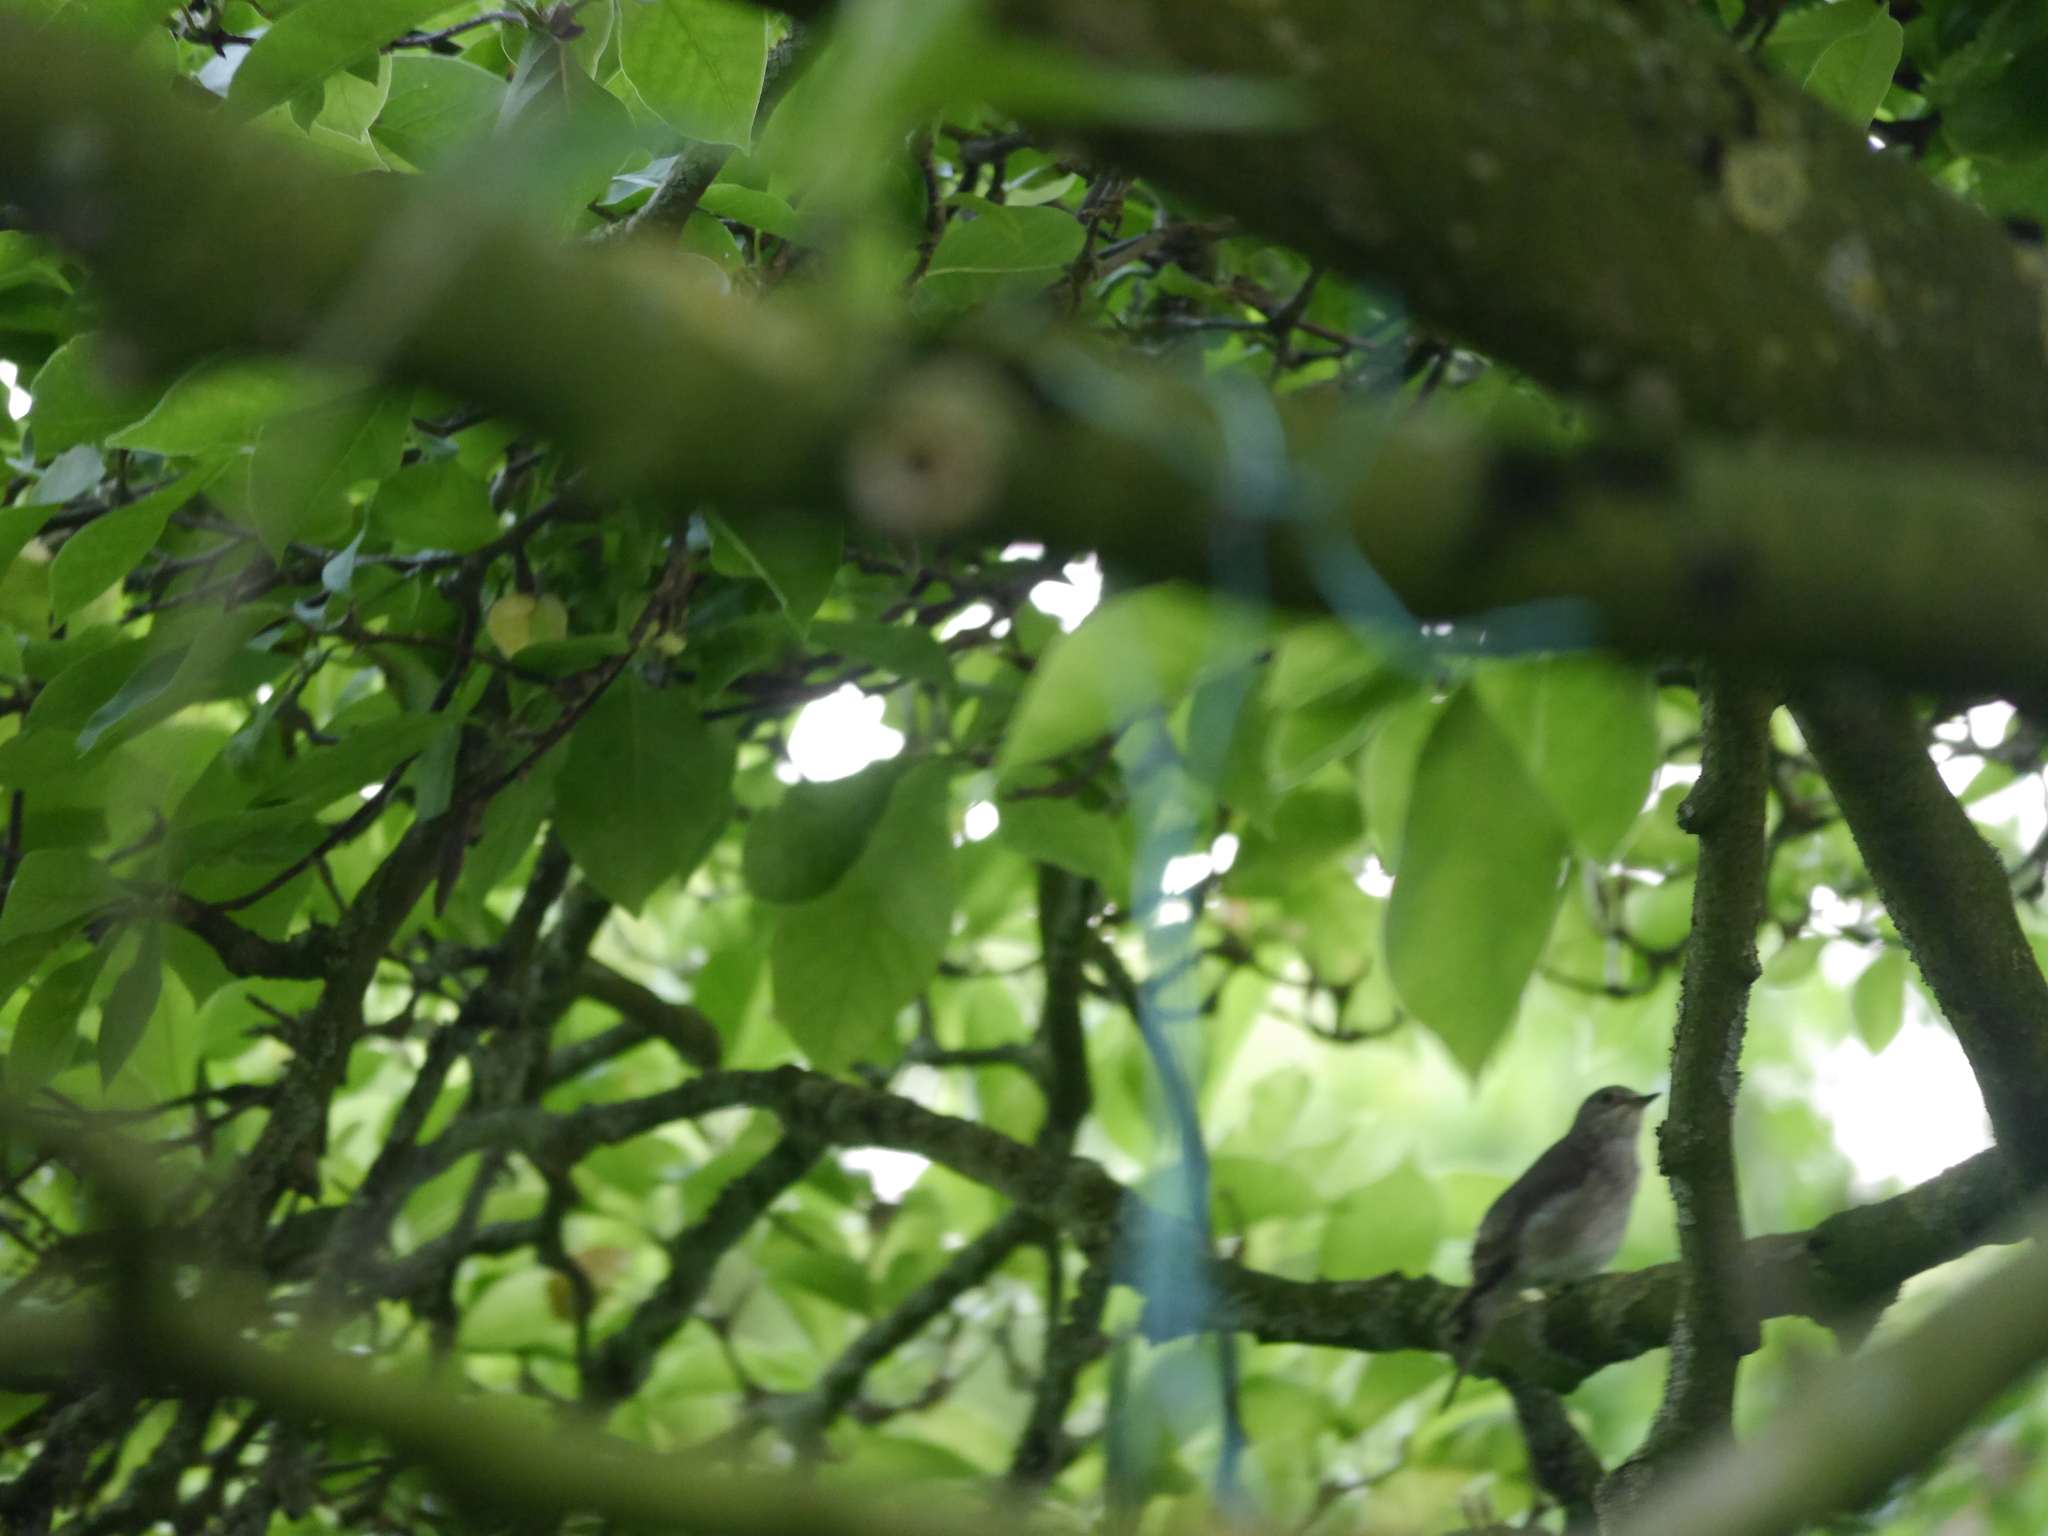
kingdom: Animalia
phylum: Chordata
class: Aves
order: Passeriformes
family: Muscicapidae
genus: Muscicapa
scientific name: Muscicapa striata
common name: Spotted flycatcher
